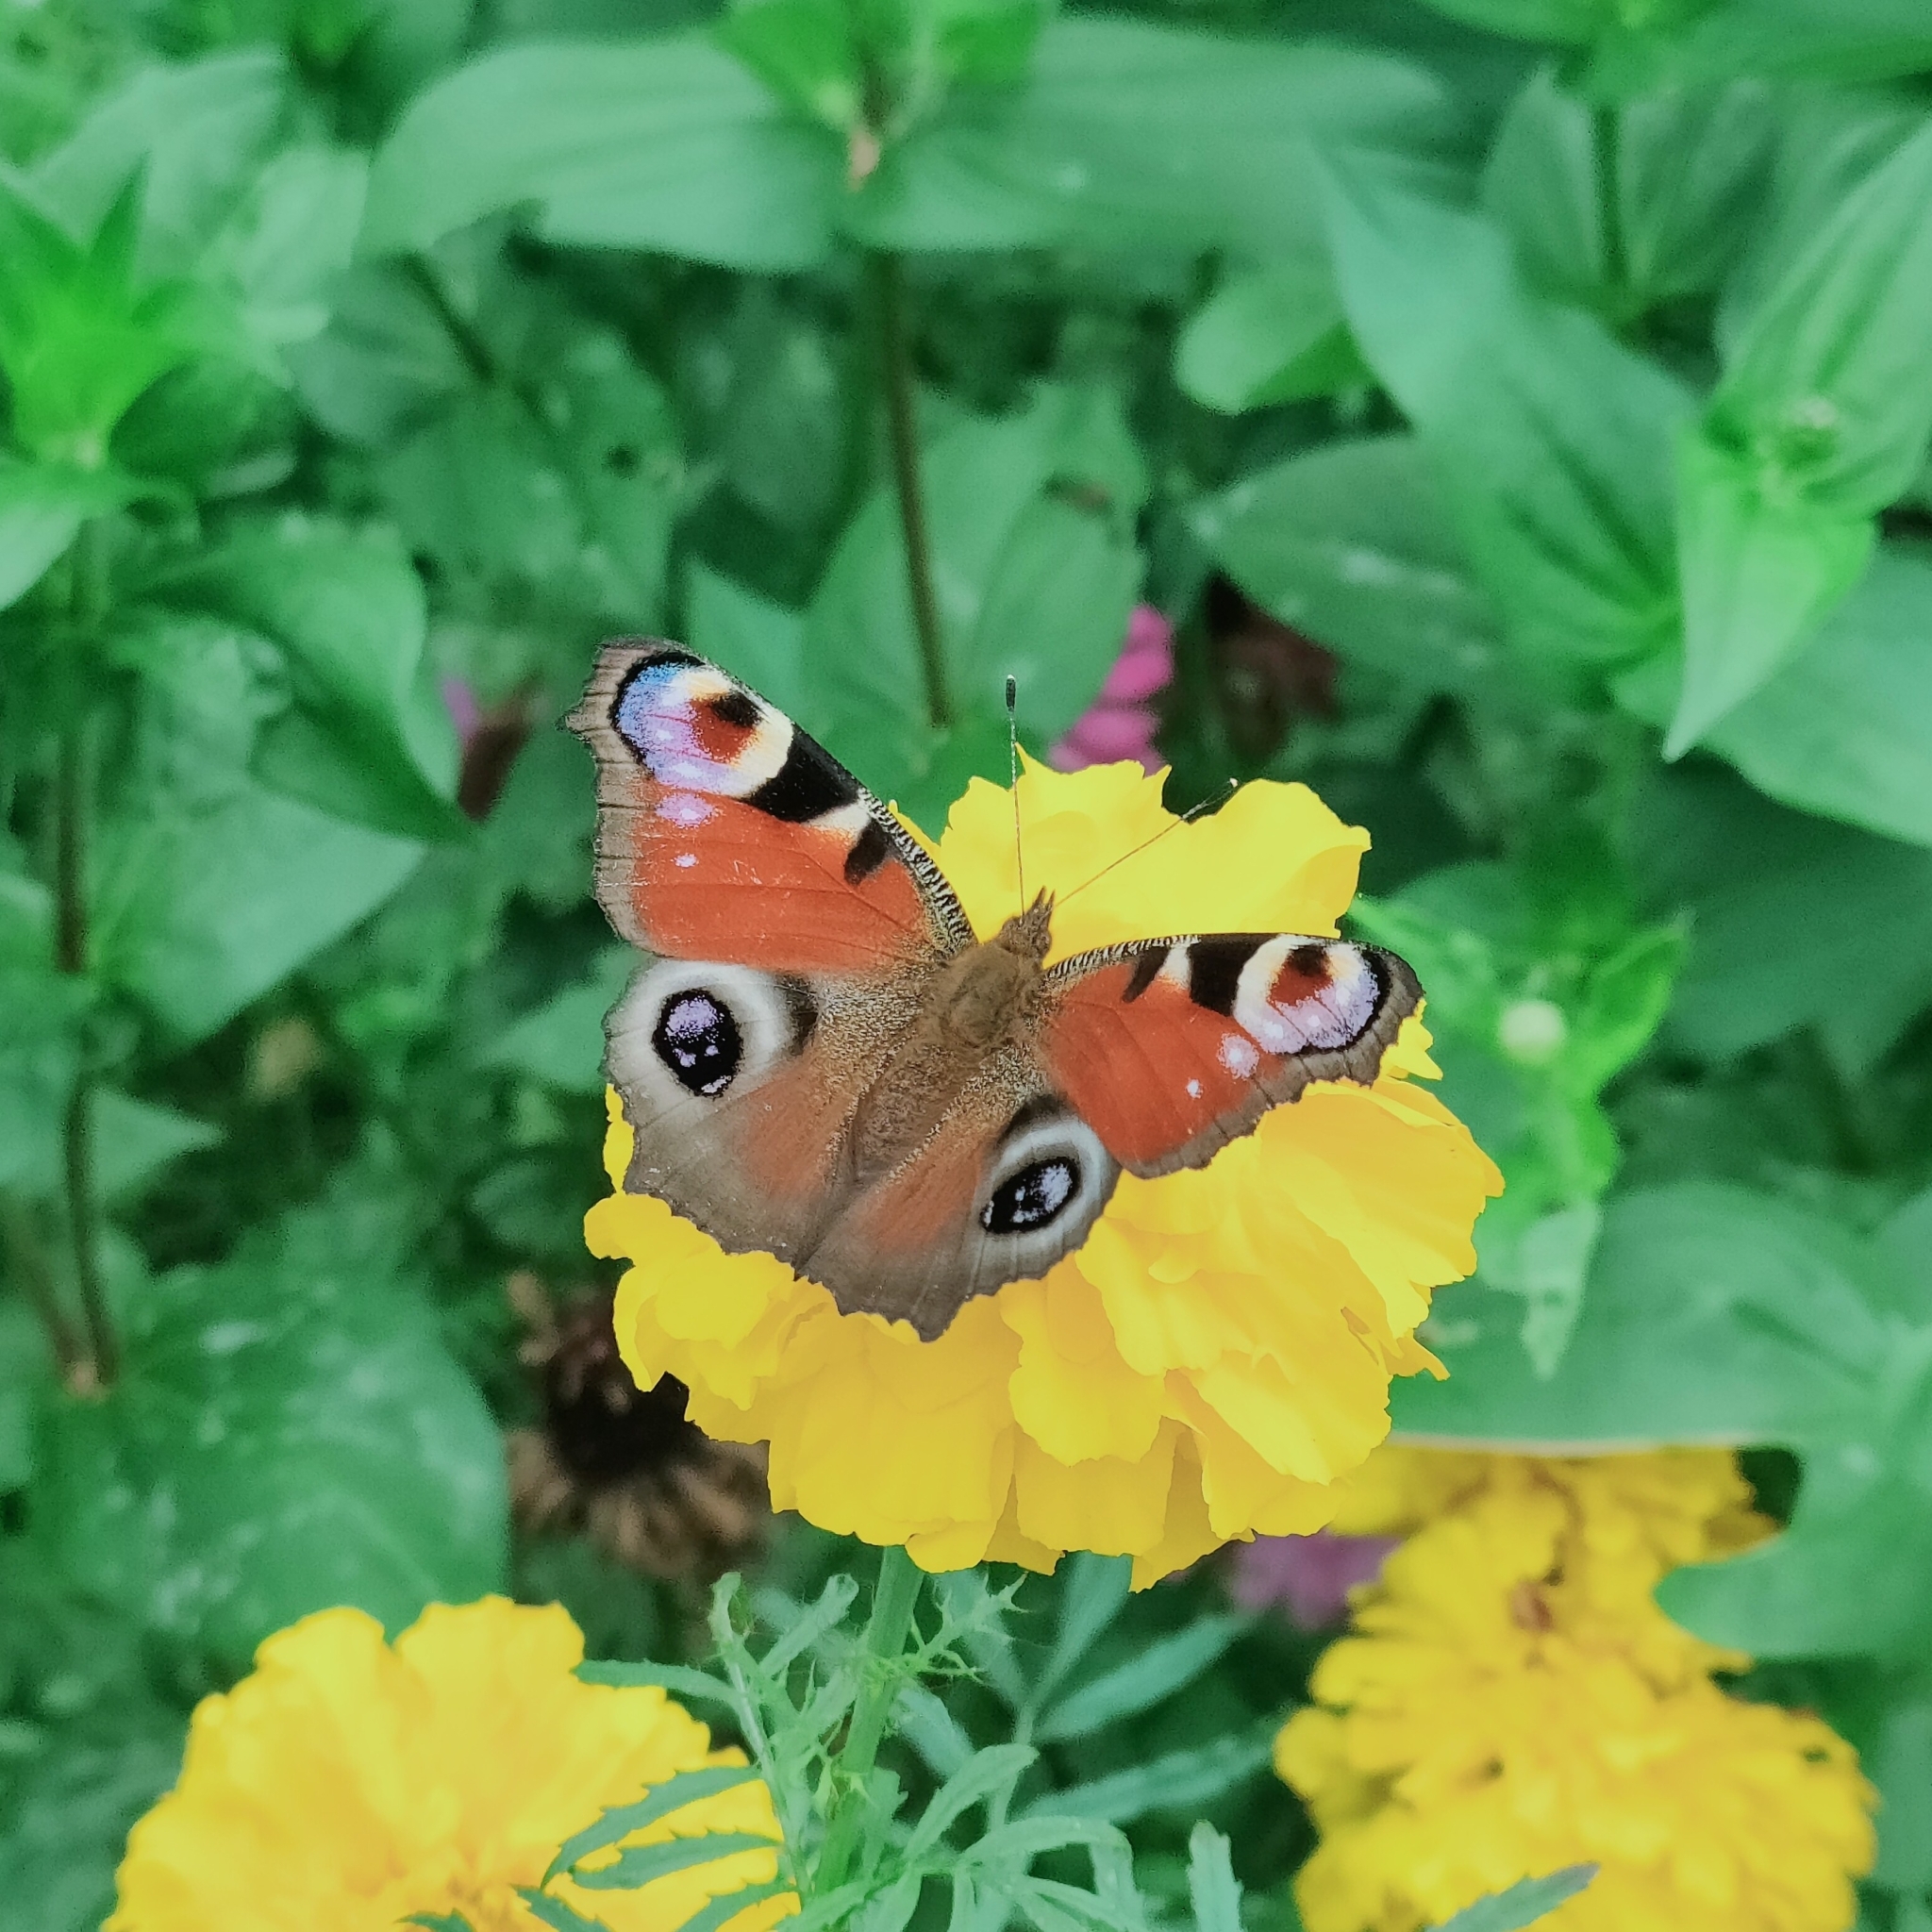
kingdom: Animalia
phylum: Arthropoda
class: Insecta
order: Lepidoptera
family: Nymphalidae
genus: Aglais
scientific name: Aglais io
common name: Peacock
